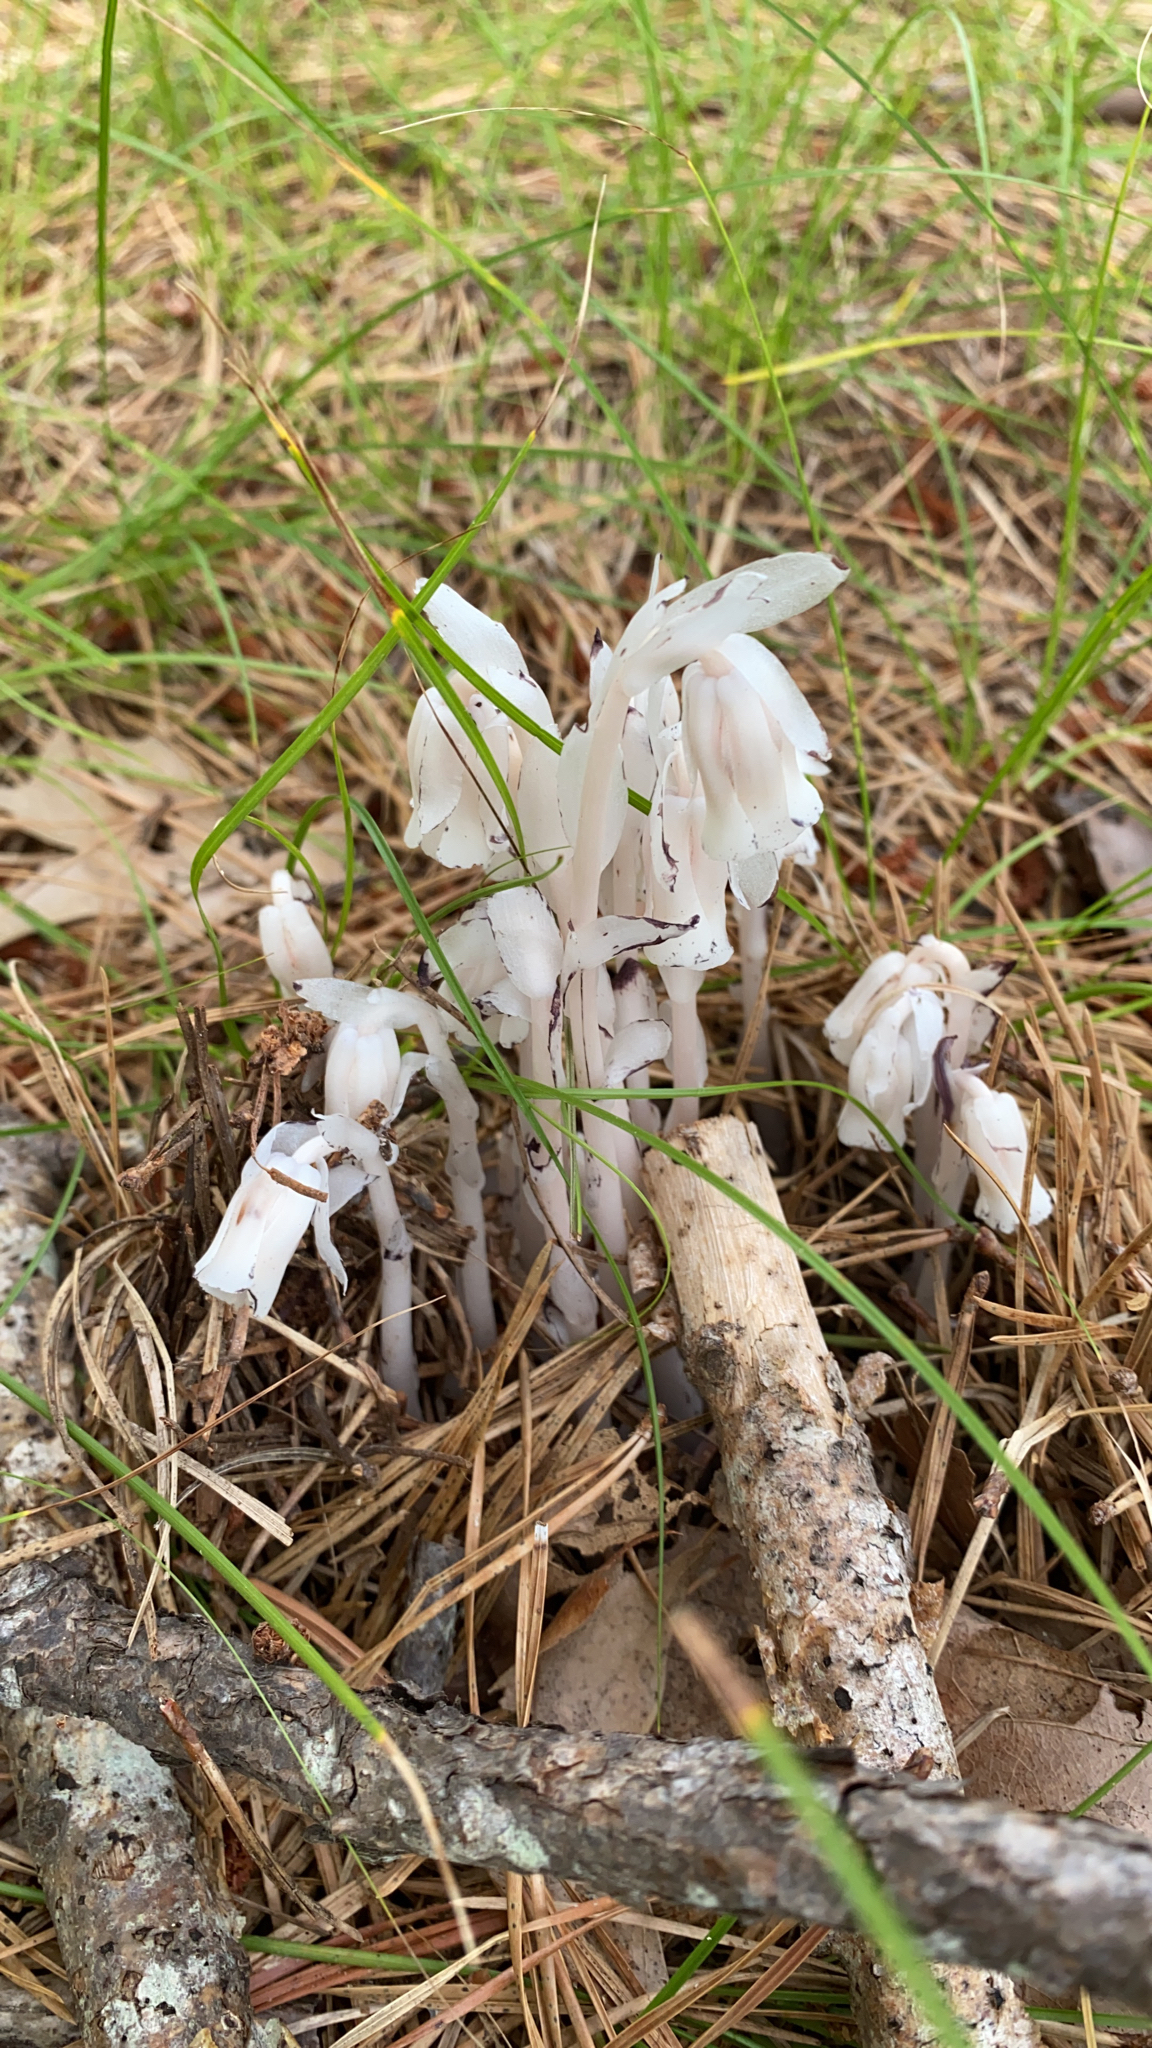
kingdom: Plantae
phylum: Tracheophyta
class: Magnoliopsida
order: Ericales
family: Ericaceae
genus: Monotropa
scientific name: Monotropa uniflora
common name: Convulsion root
